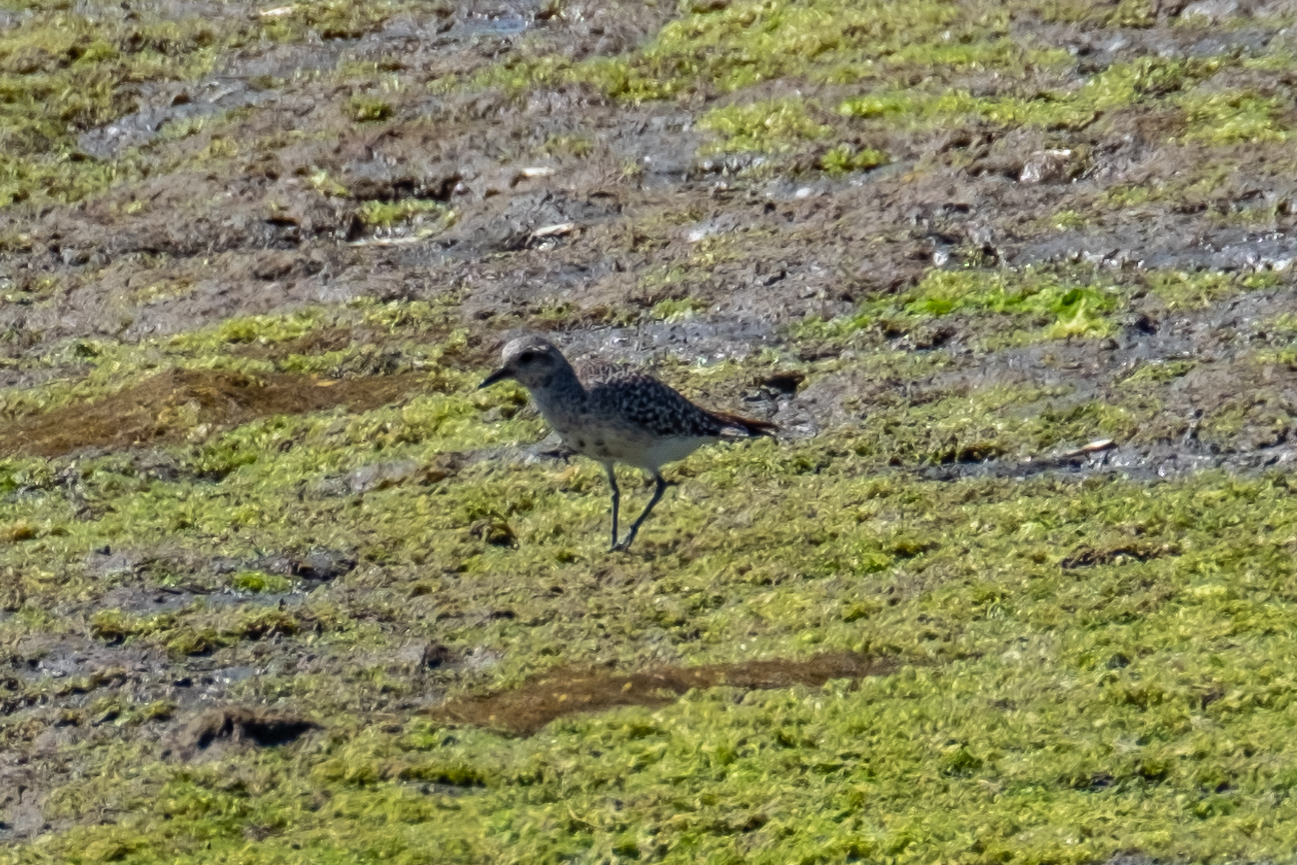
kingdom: Animalia
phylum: Chordata
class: Aves
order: Charadriiformes
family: Charadriidae
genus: Pluvialis
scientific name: Pluvialis squatarola
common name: Grey plover
